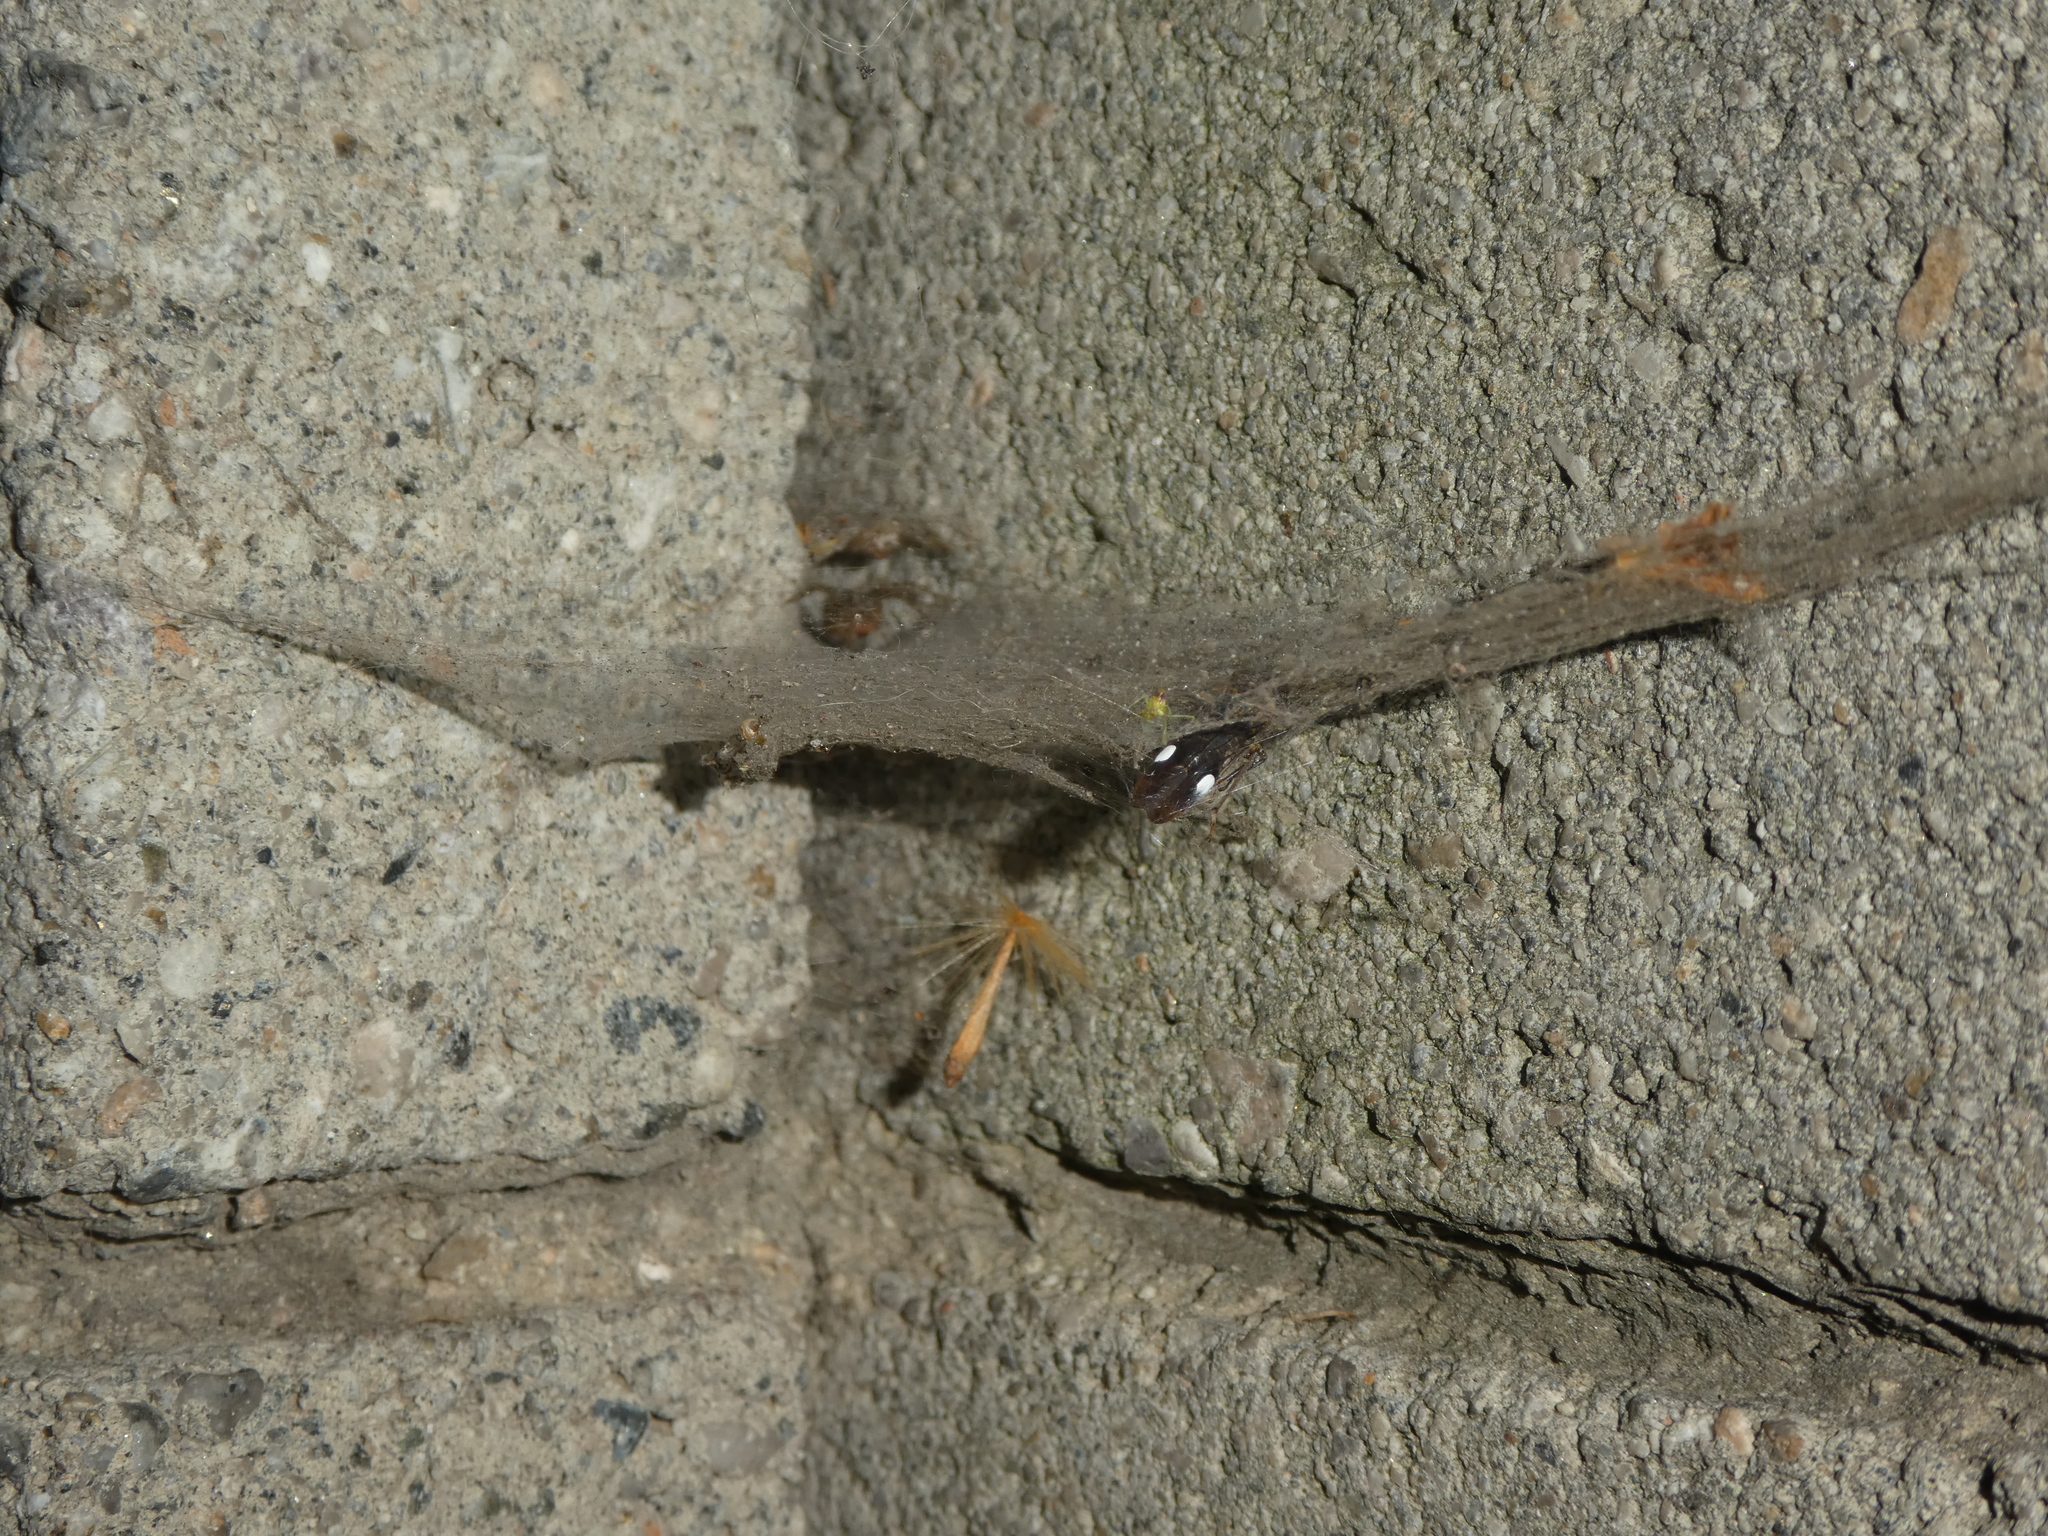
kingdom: Animalia
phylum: Arthropoda
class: Insecta
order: Hemiptera
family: Cicadellidae
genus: Homalodisca
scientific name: Homalodisca vitripennis
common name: Glassy-winged sharpshooter
